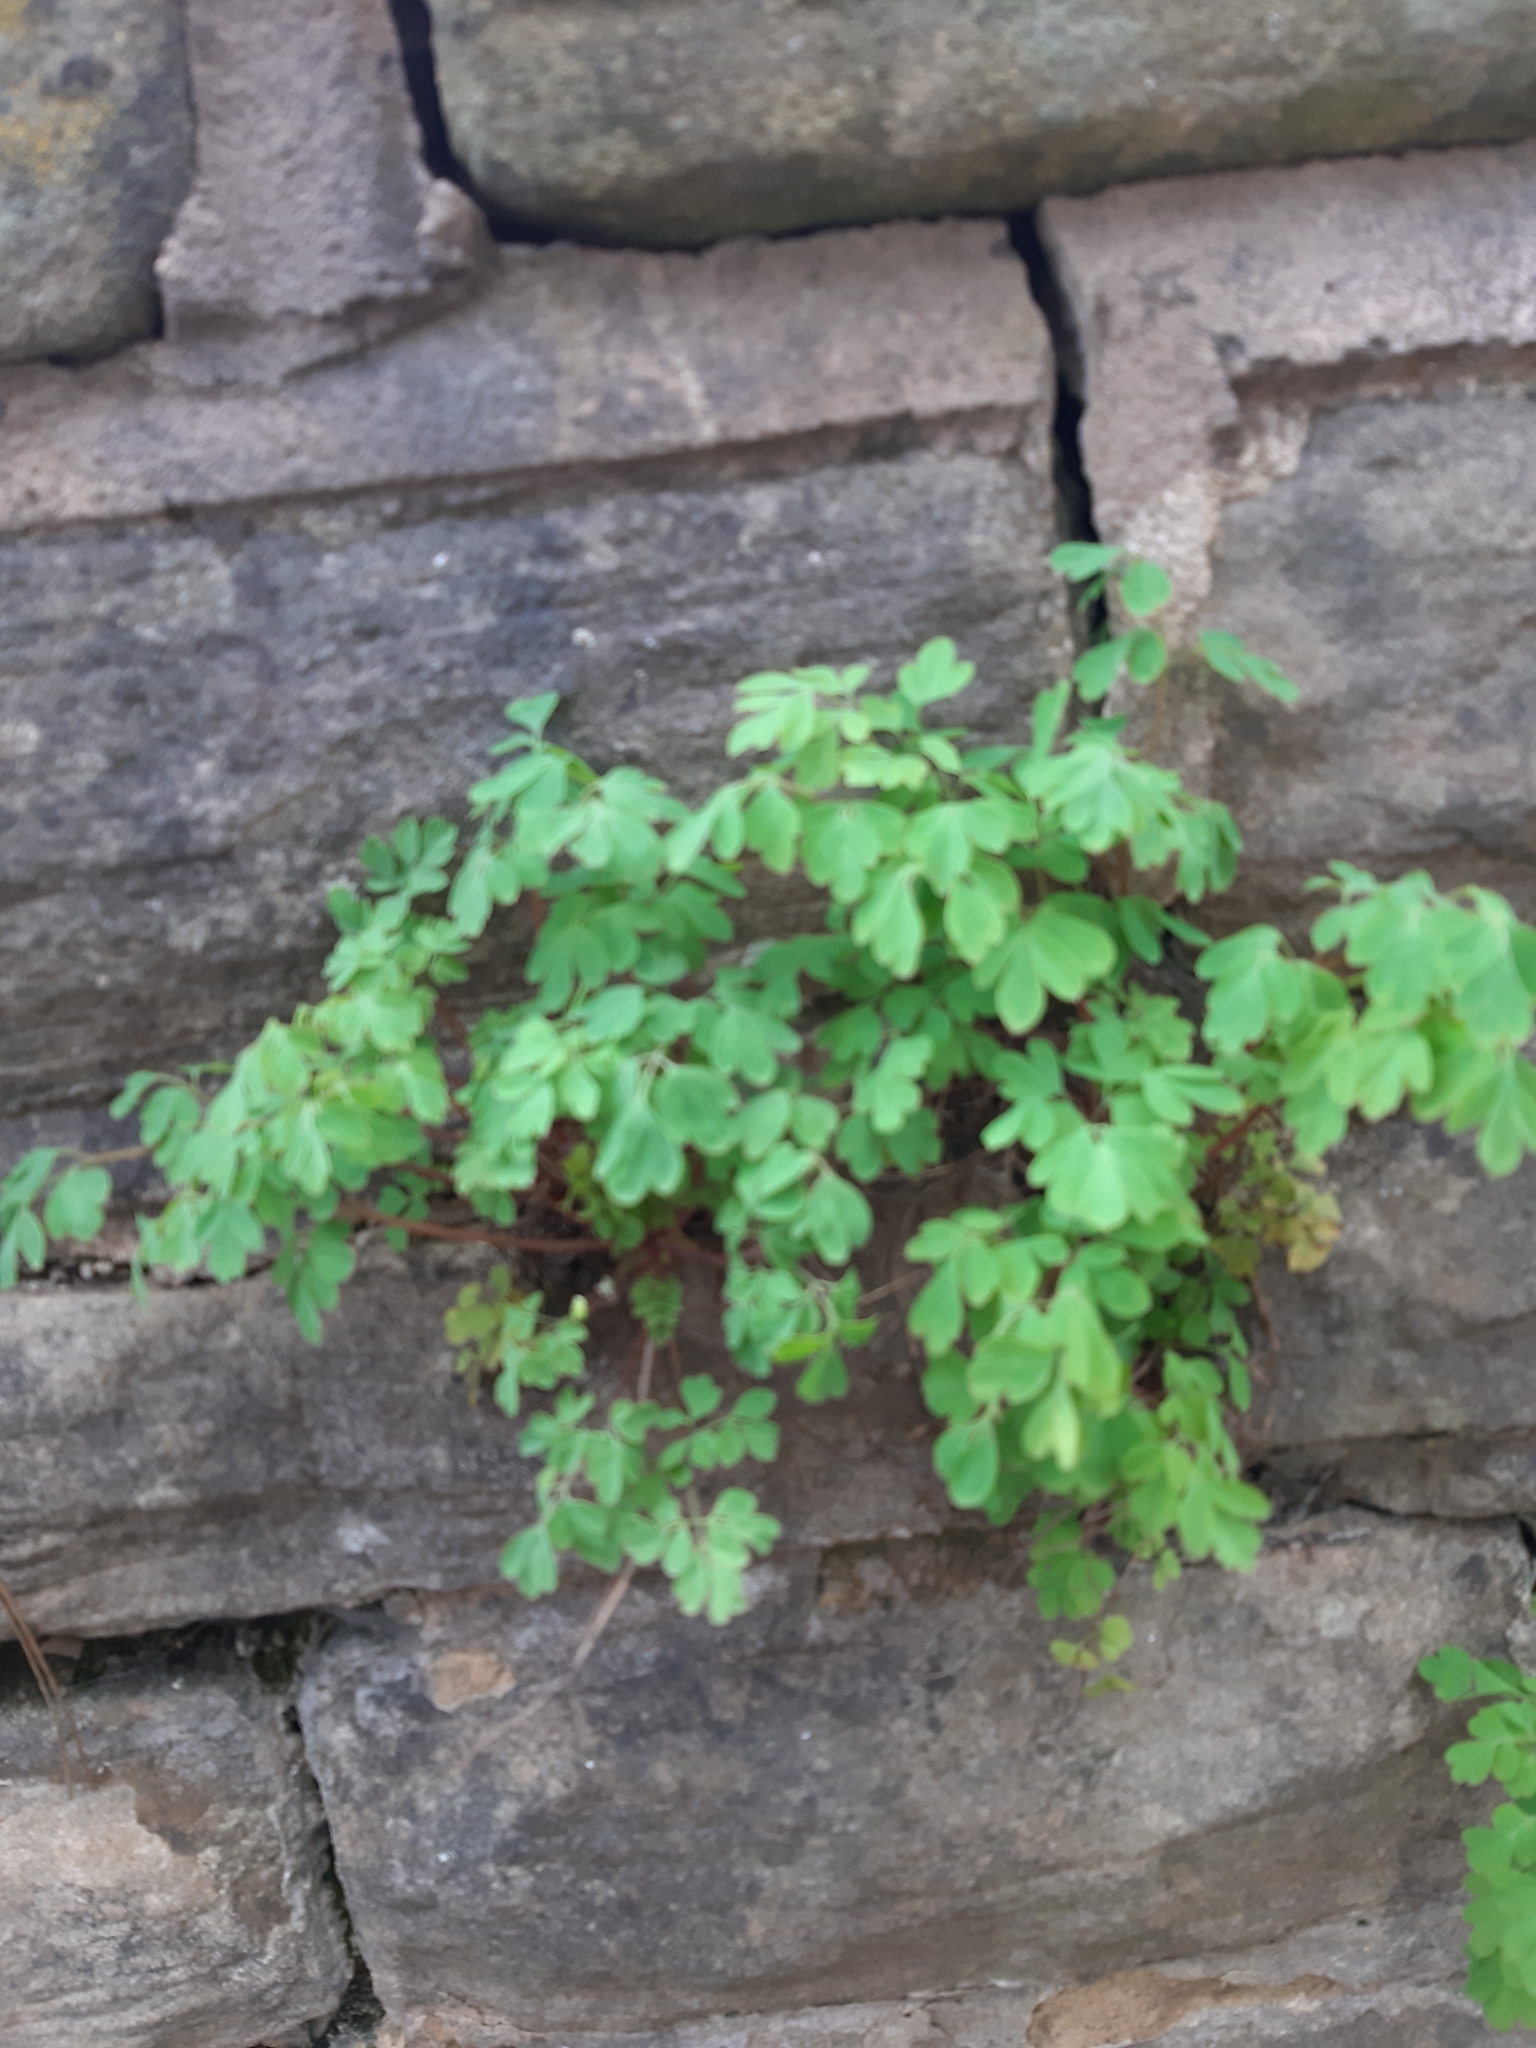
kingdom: Plantae
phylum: Tracheophyta
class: Magnoliopsida
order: Ranunculales
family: Papaveraceae
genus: Pseudofumaria
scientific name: Pseudofumaria lutea
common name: Yellow corydalis
